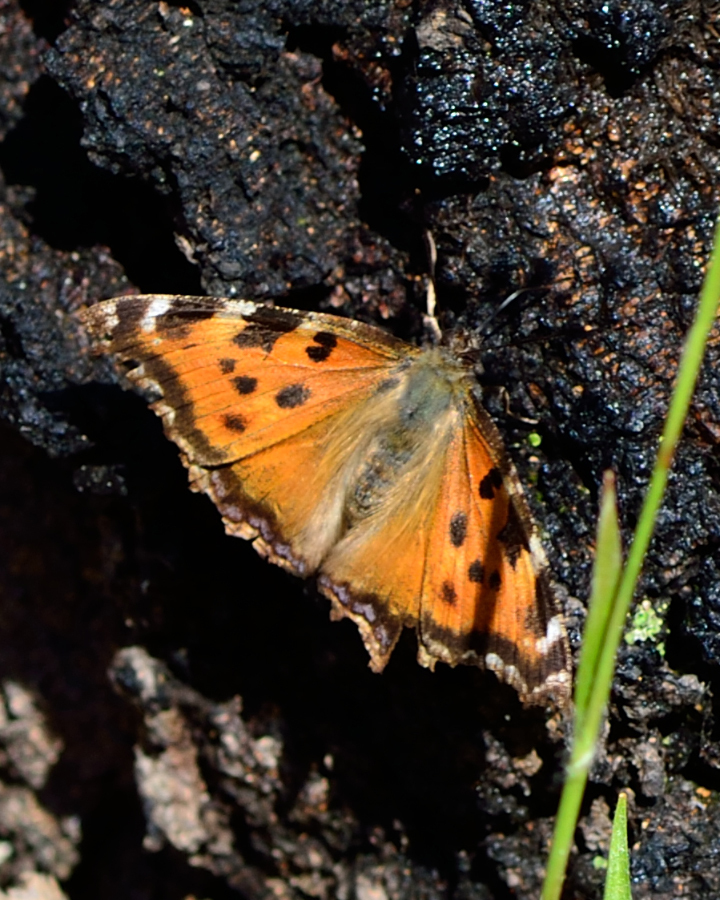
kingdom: Animalia
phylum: Arthropoda
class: Insecta
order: Lepidoptera
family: Nymphalidae
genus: Nymphalis
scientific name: Nymphalis xanthomelas
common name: Scarce tortoiseshell
